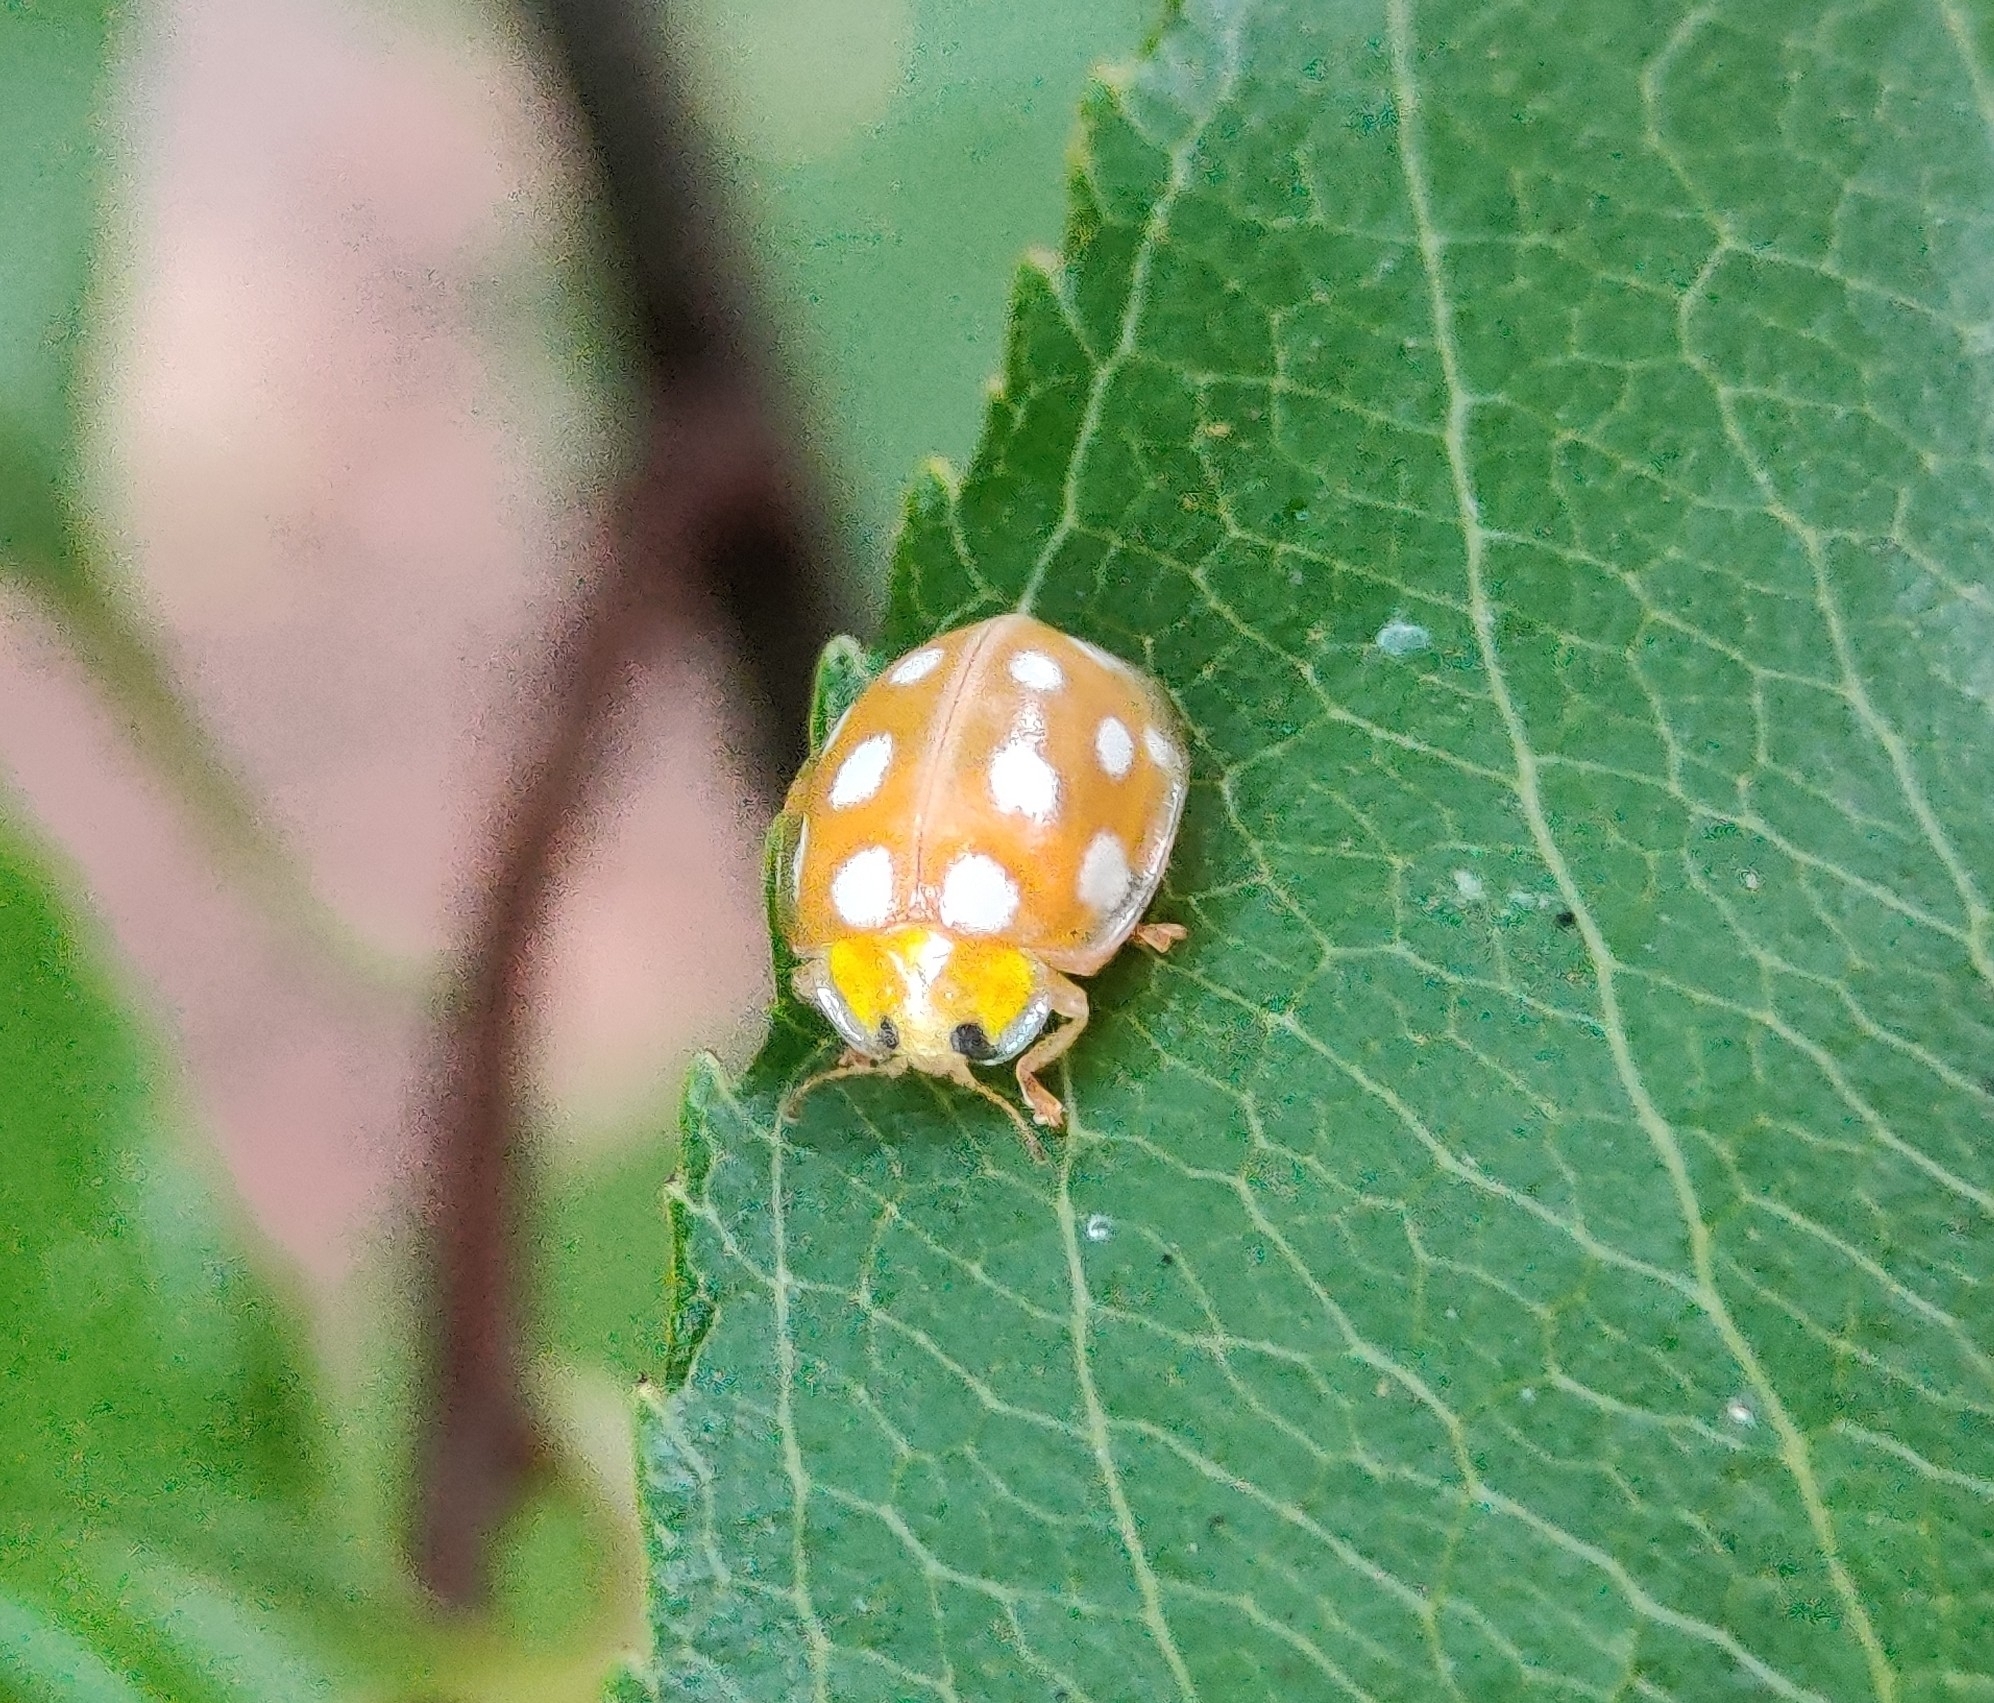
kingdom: Animalia
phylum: Arthropoda
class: Insecta
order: Coleoptera
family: Coccinellidae
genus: Halyzia
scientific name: Halyzia sedecimguttata
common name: Orange ladybird
